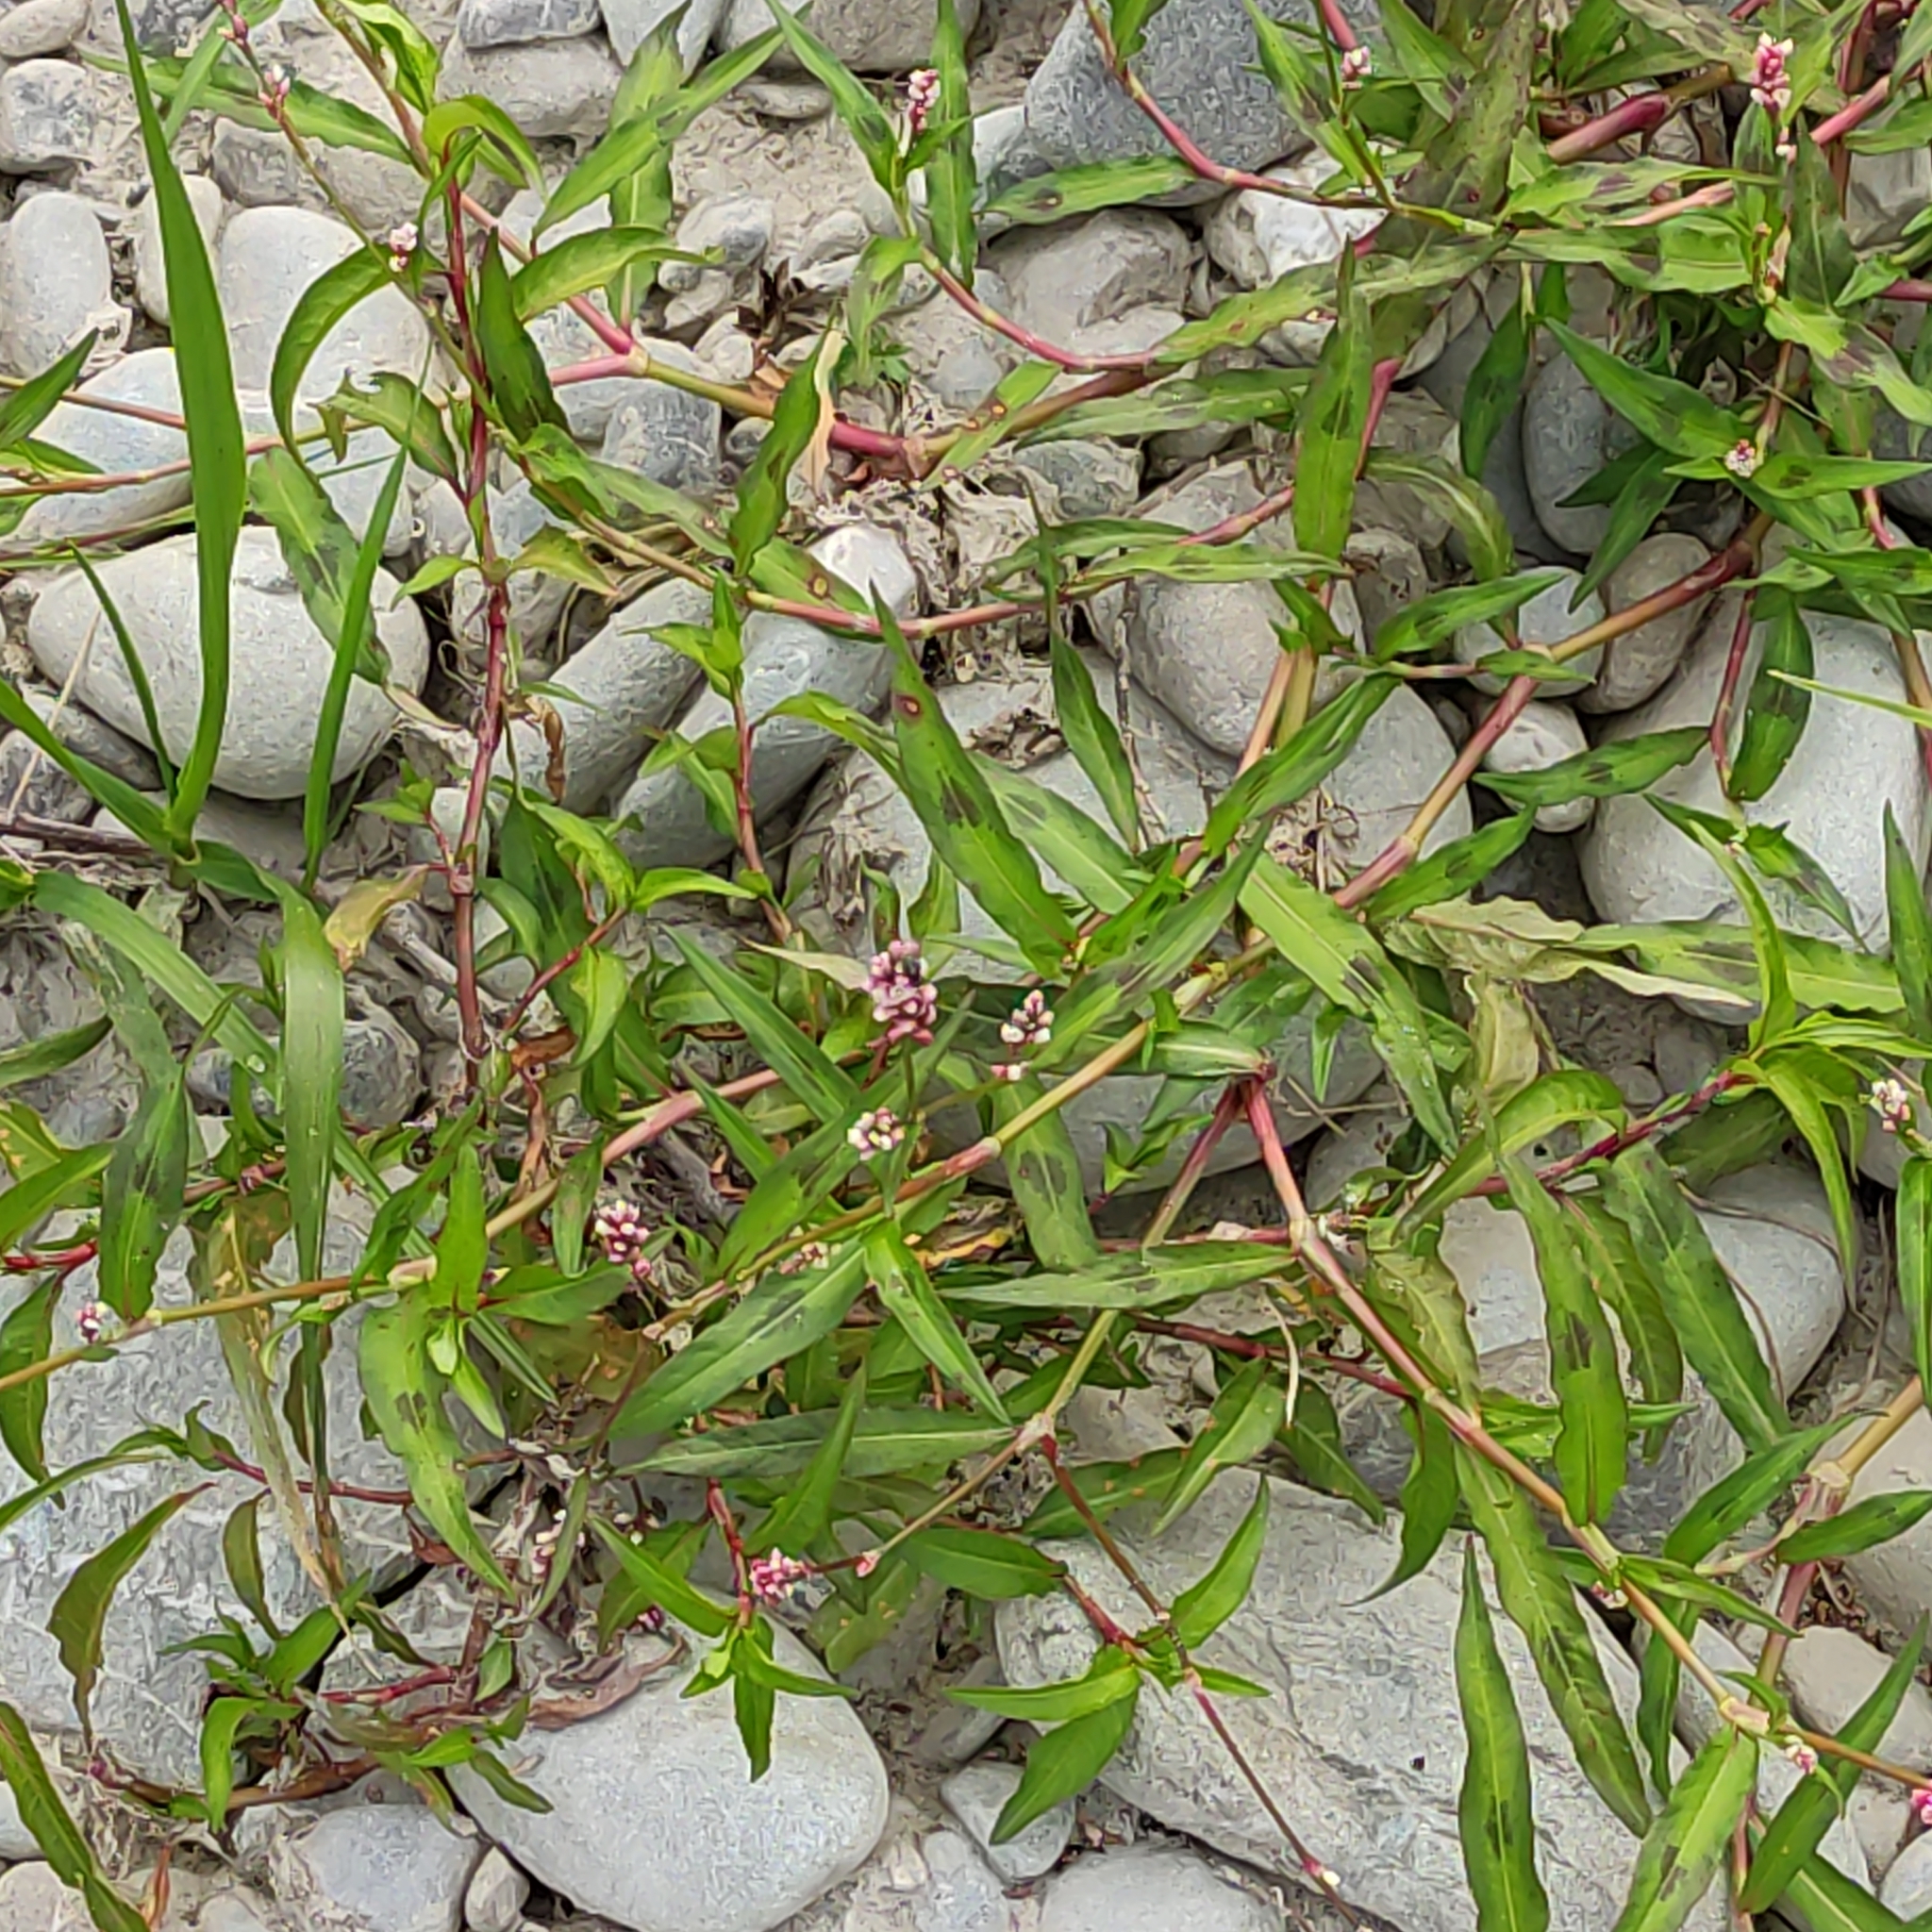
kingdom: Plantae
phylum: Tracheophyta
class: Magnoliopsida
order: Caryophyllales
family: Polygonaceae
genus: Persicaria
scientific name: Persicaria maculosa
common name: Redshank
